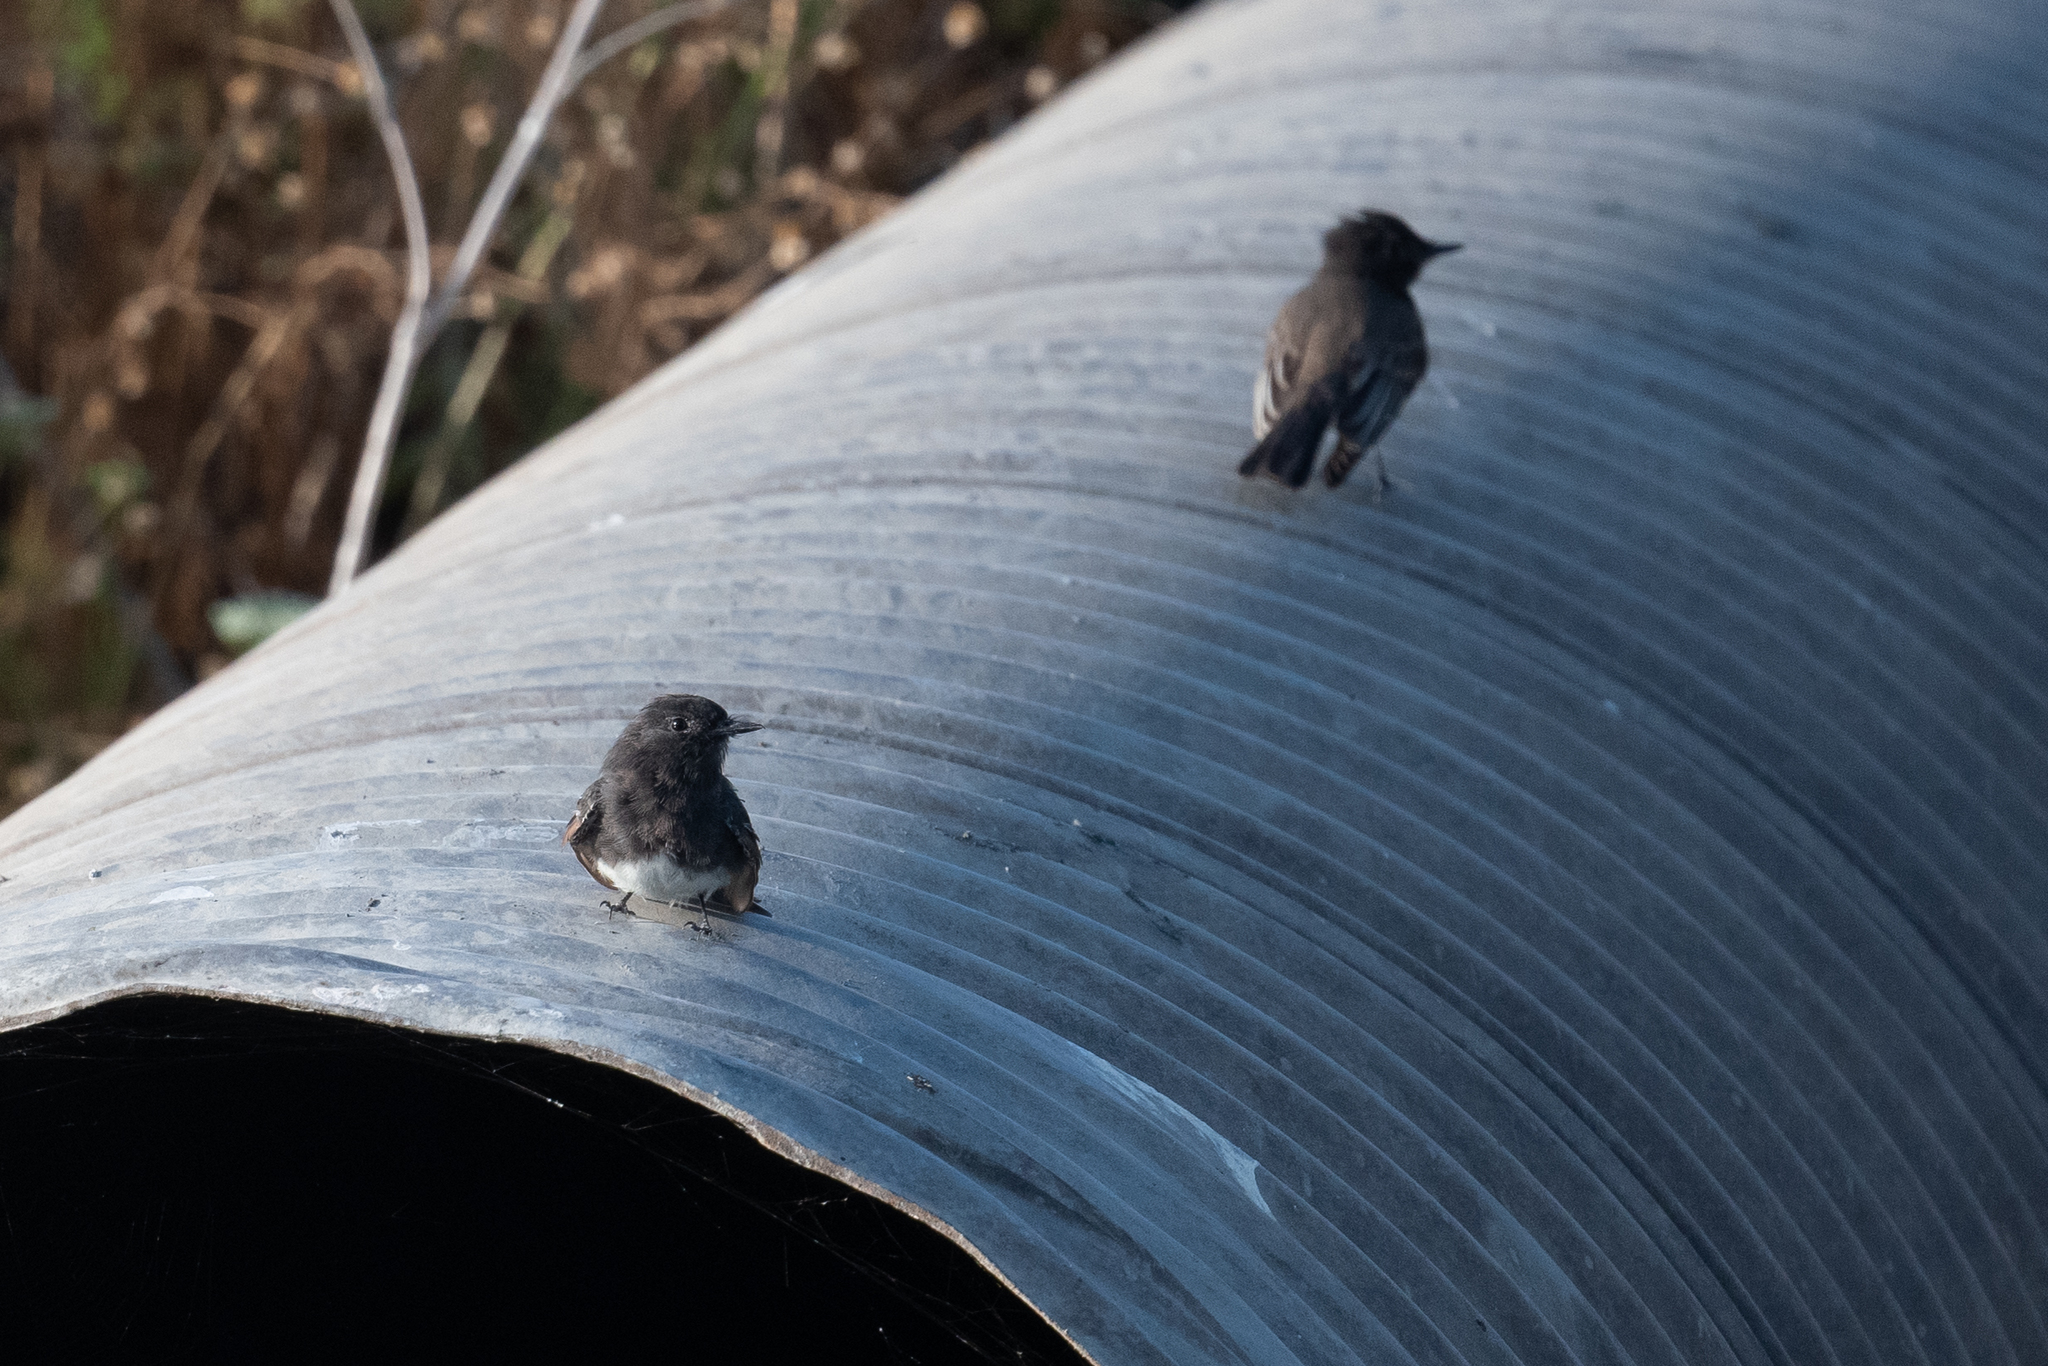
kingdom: Animalia
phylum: Chordata
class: Aves
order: Passeriformes
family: Tyrannidae
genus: Sayornis
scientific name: Sayornis nigricans
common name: Black phoebe
